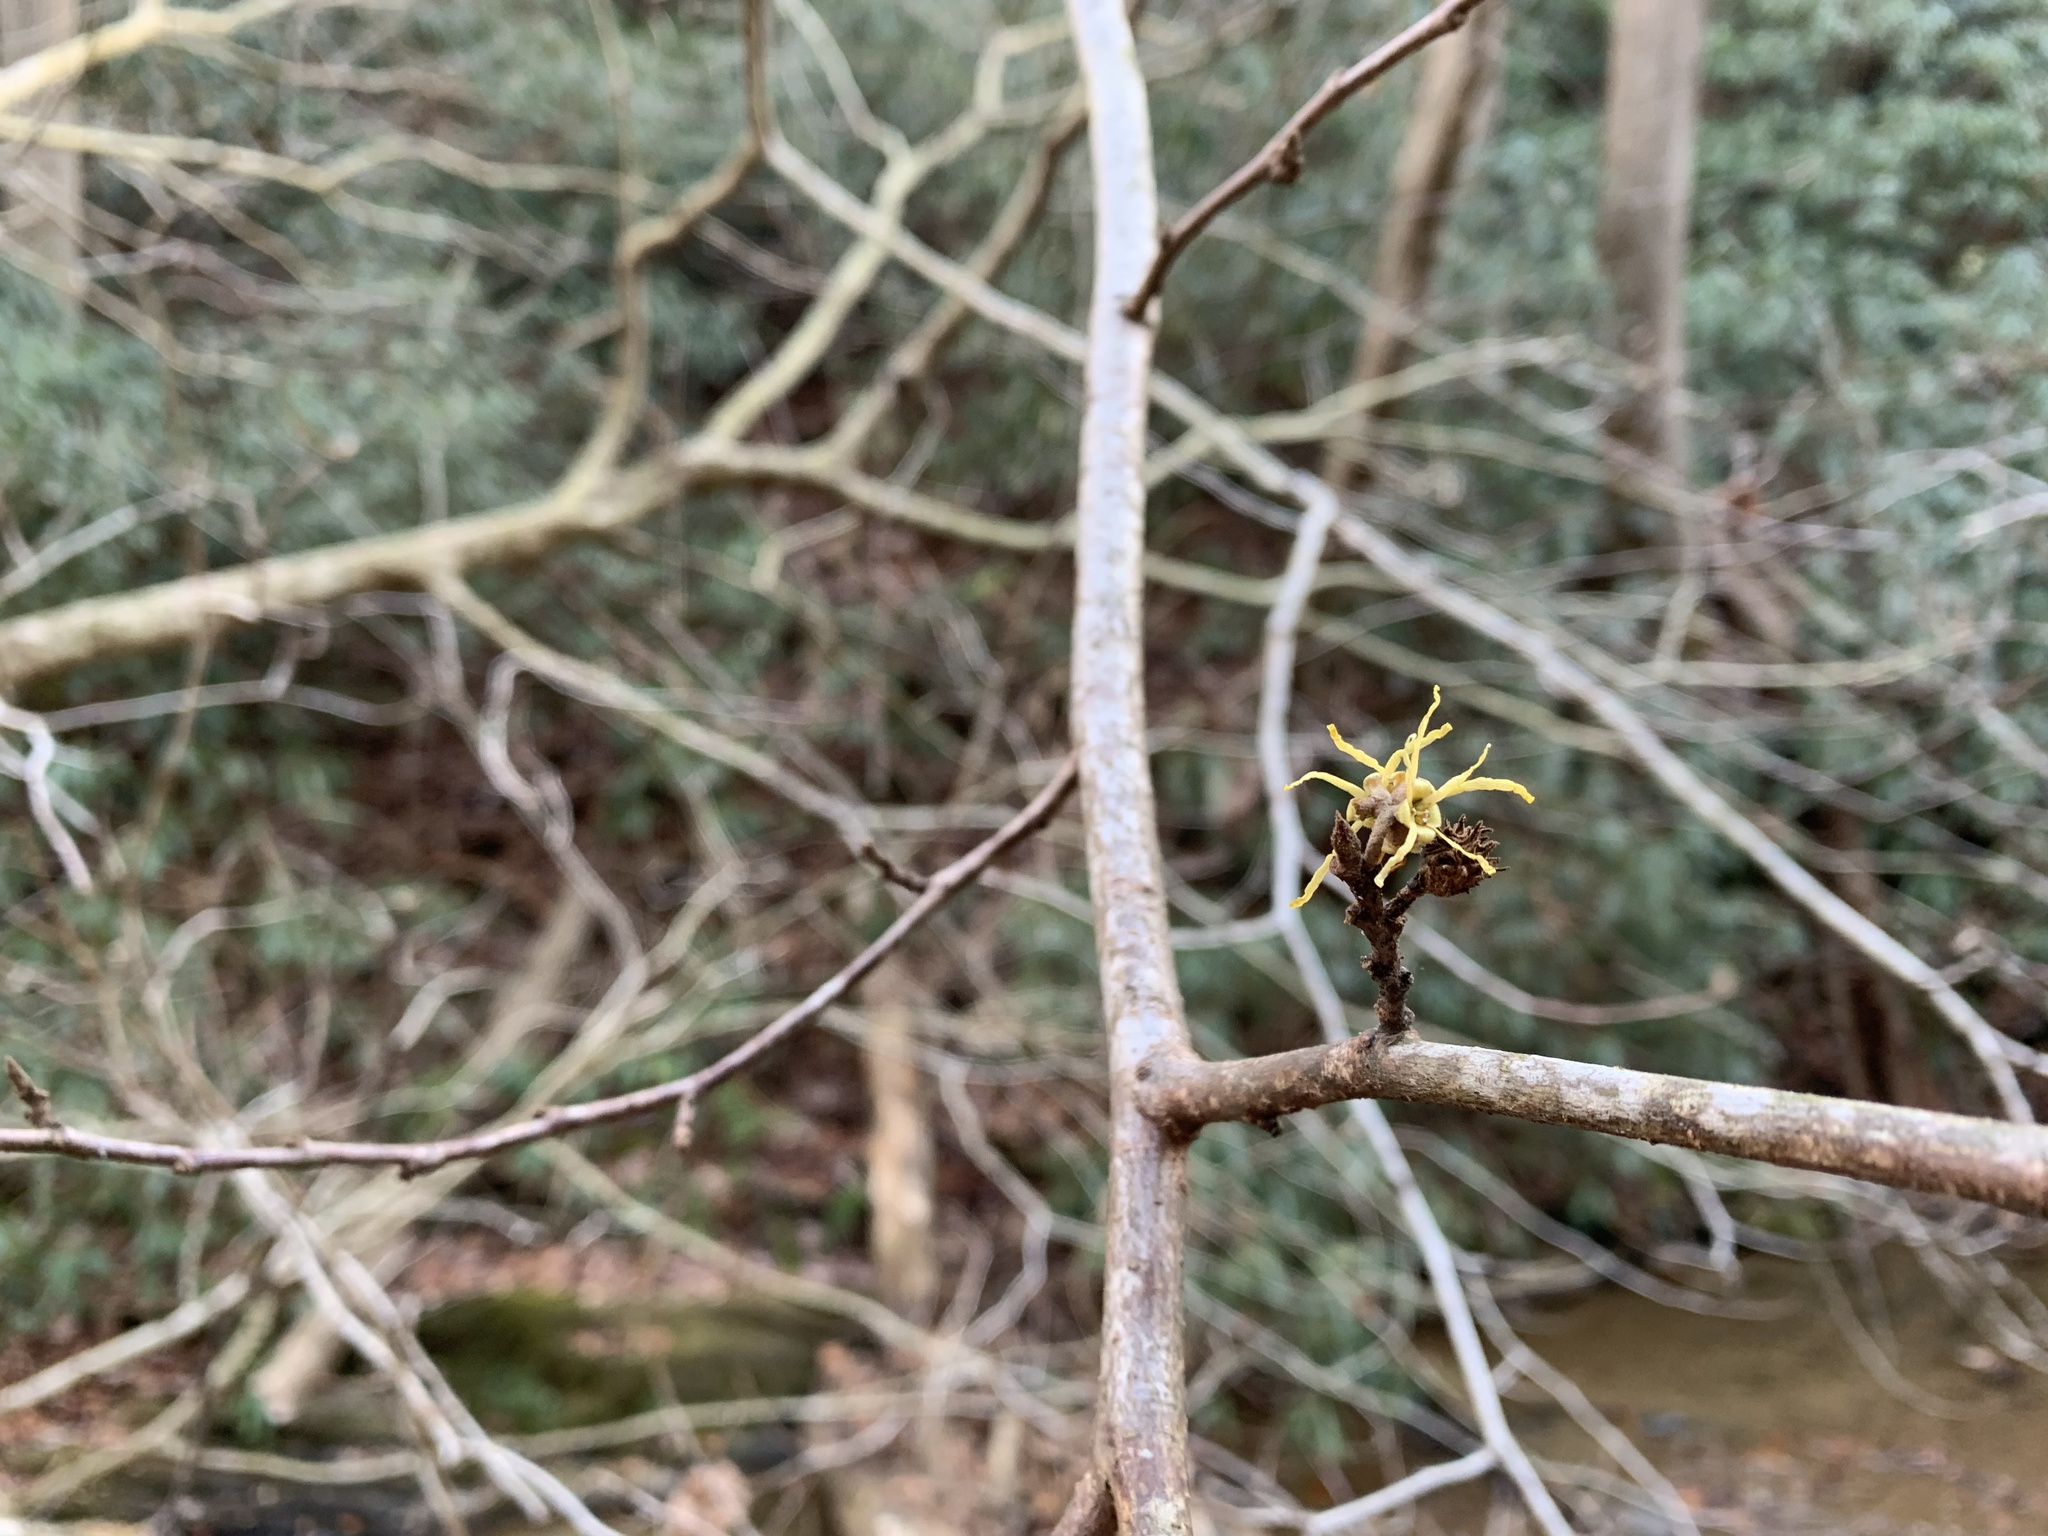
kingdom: Plantae
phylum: Tracheophyta
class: Magnoliopsida
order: Saxifragales
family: Hamamelidaceae
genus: Hamamelis
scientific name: Hamamelis virginiana
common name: Witch-hazel
